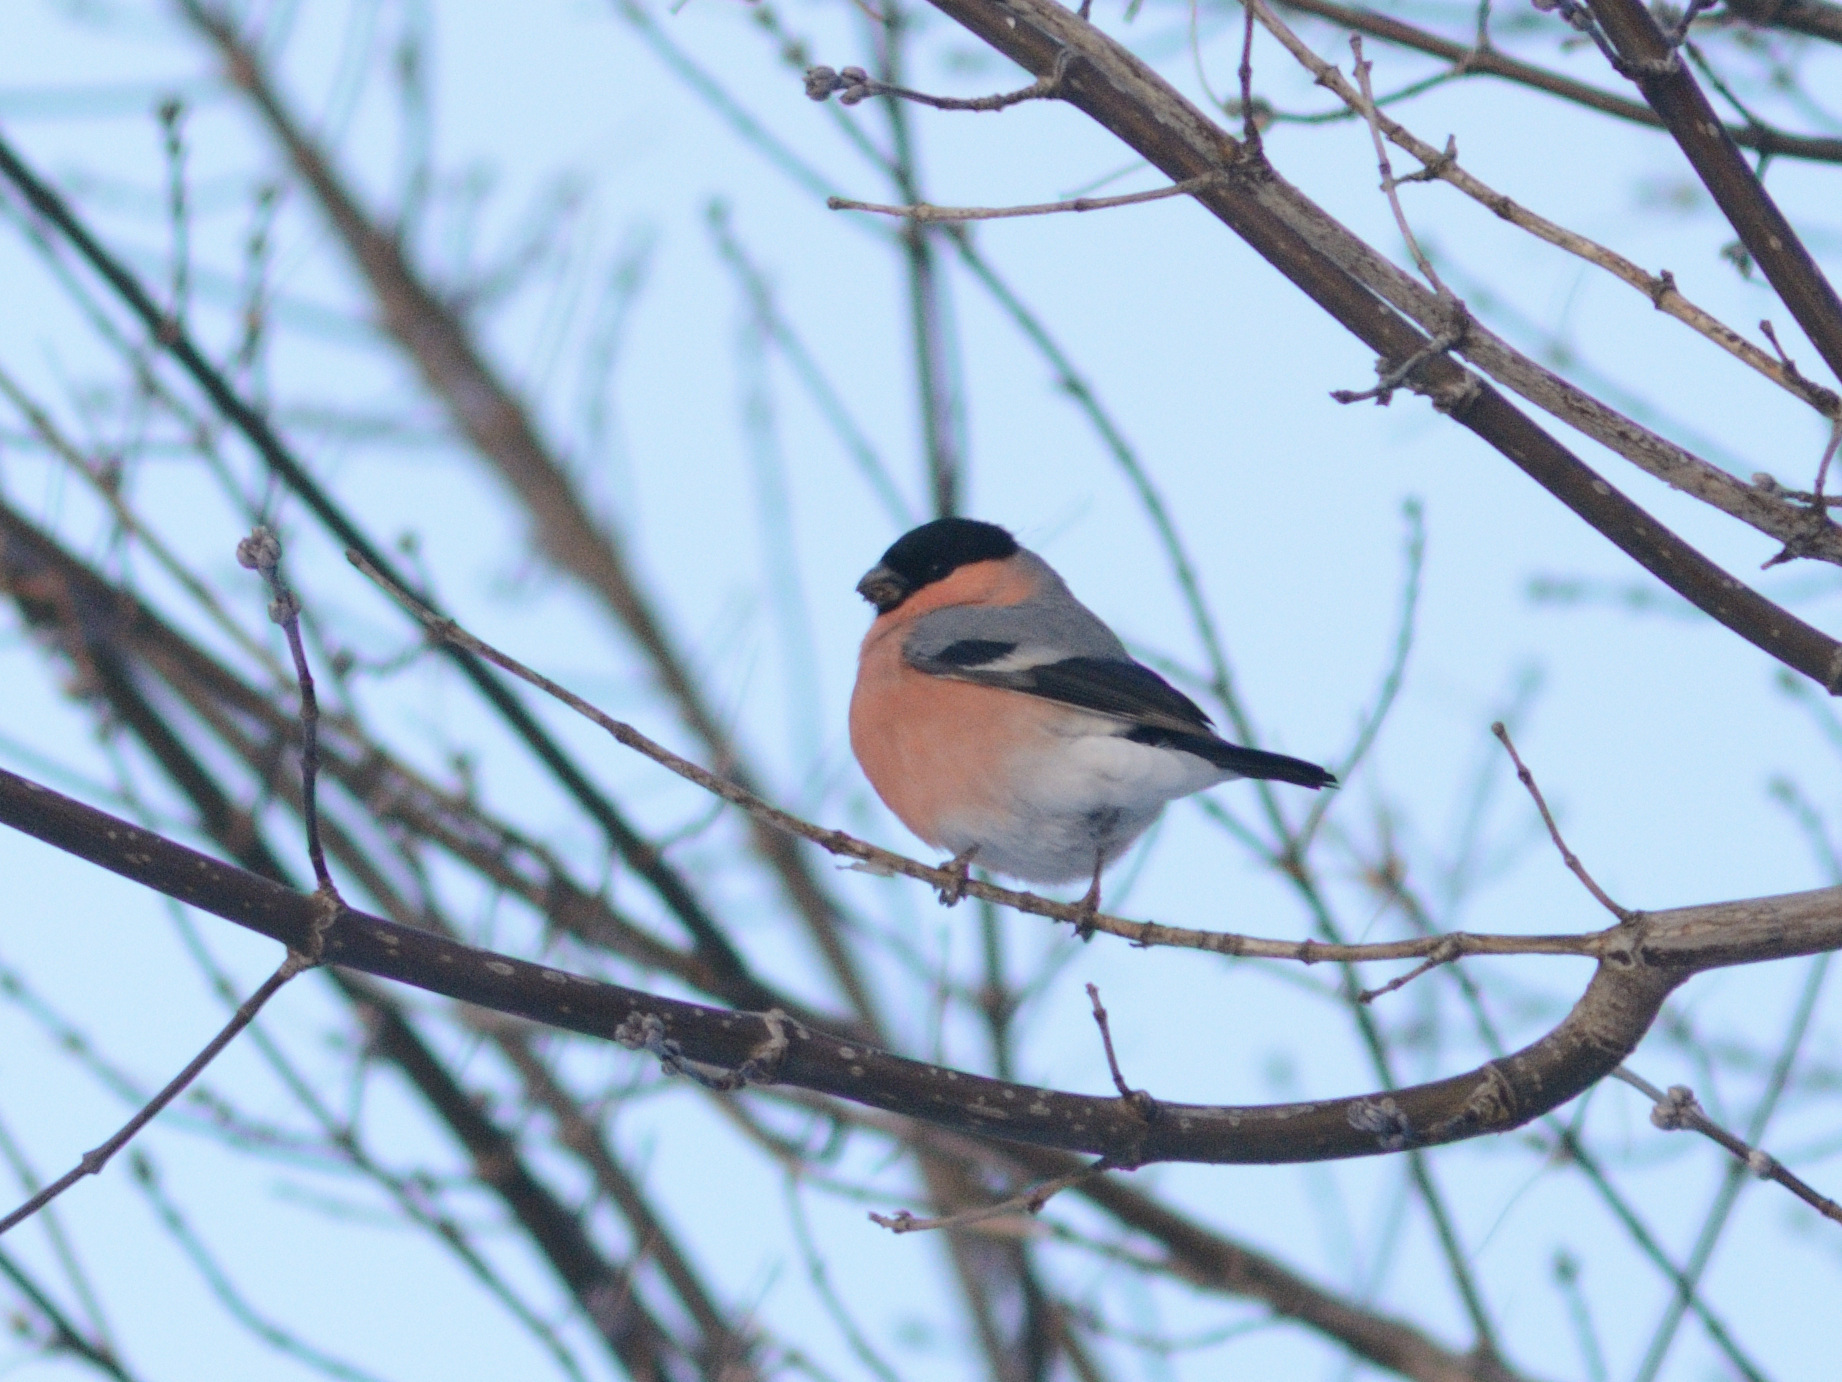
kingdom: Animalia
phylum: Chordata
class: Aves
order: Passeriformes
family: Fringillidae
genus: Pyrrhula
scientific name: Pyrrhula pyrrhula
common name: Eurasian bullfinch
